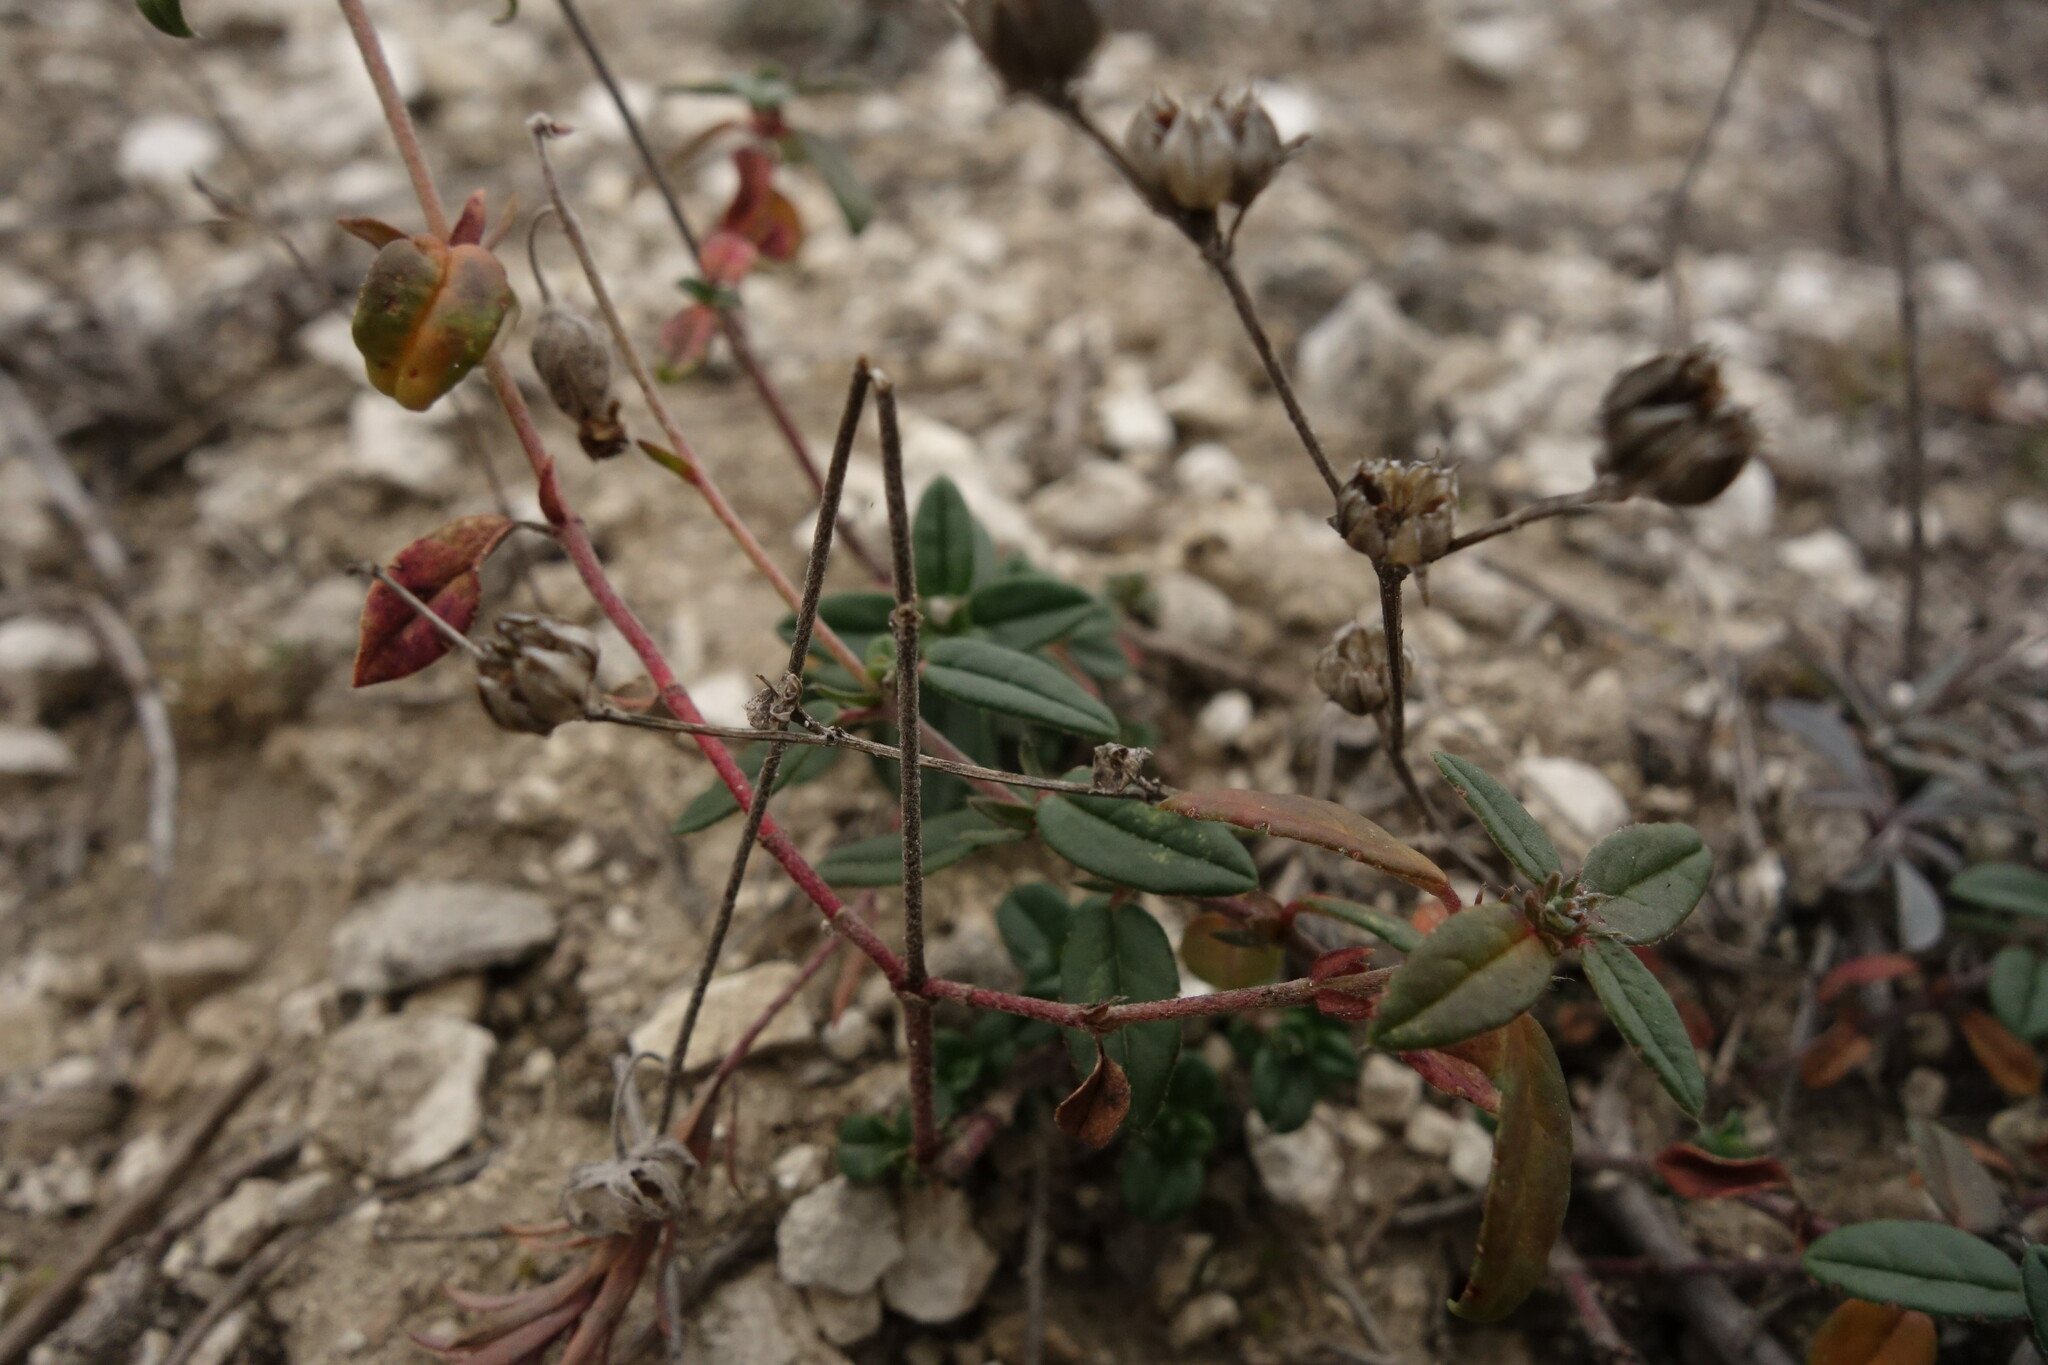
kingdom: Plantae
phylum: Tracheophyta
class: Magnoliopsida
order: Malvales
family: Cistaceae
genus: Helianthemum
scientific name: Helianthemum nummularium
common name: Common rock-rose
